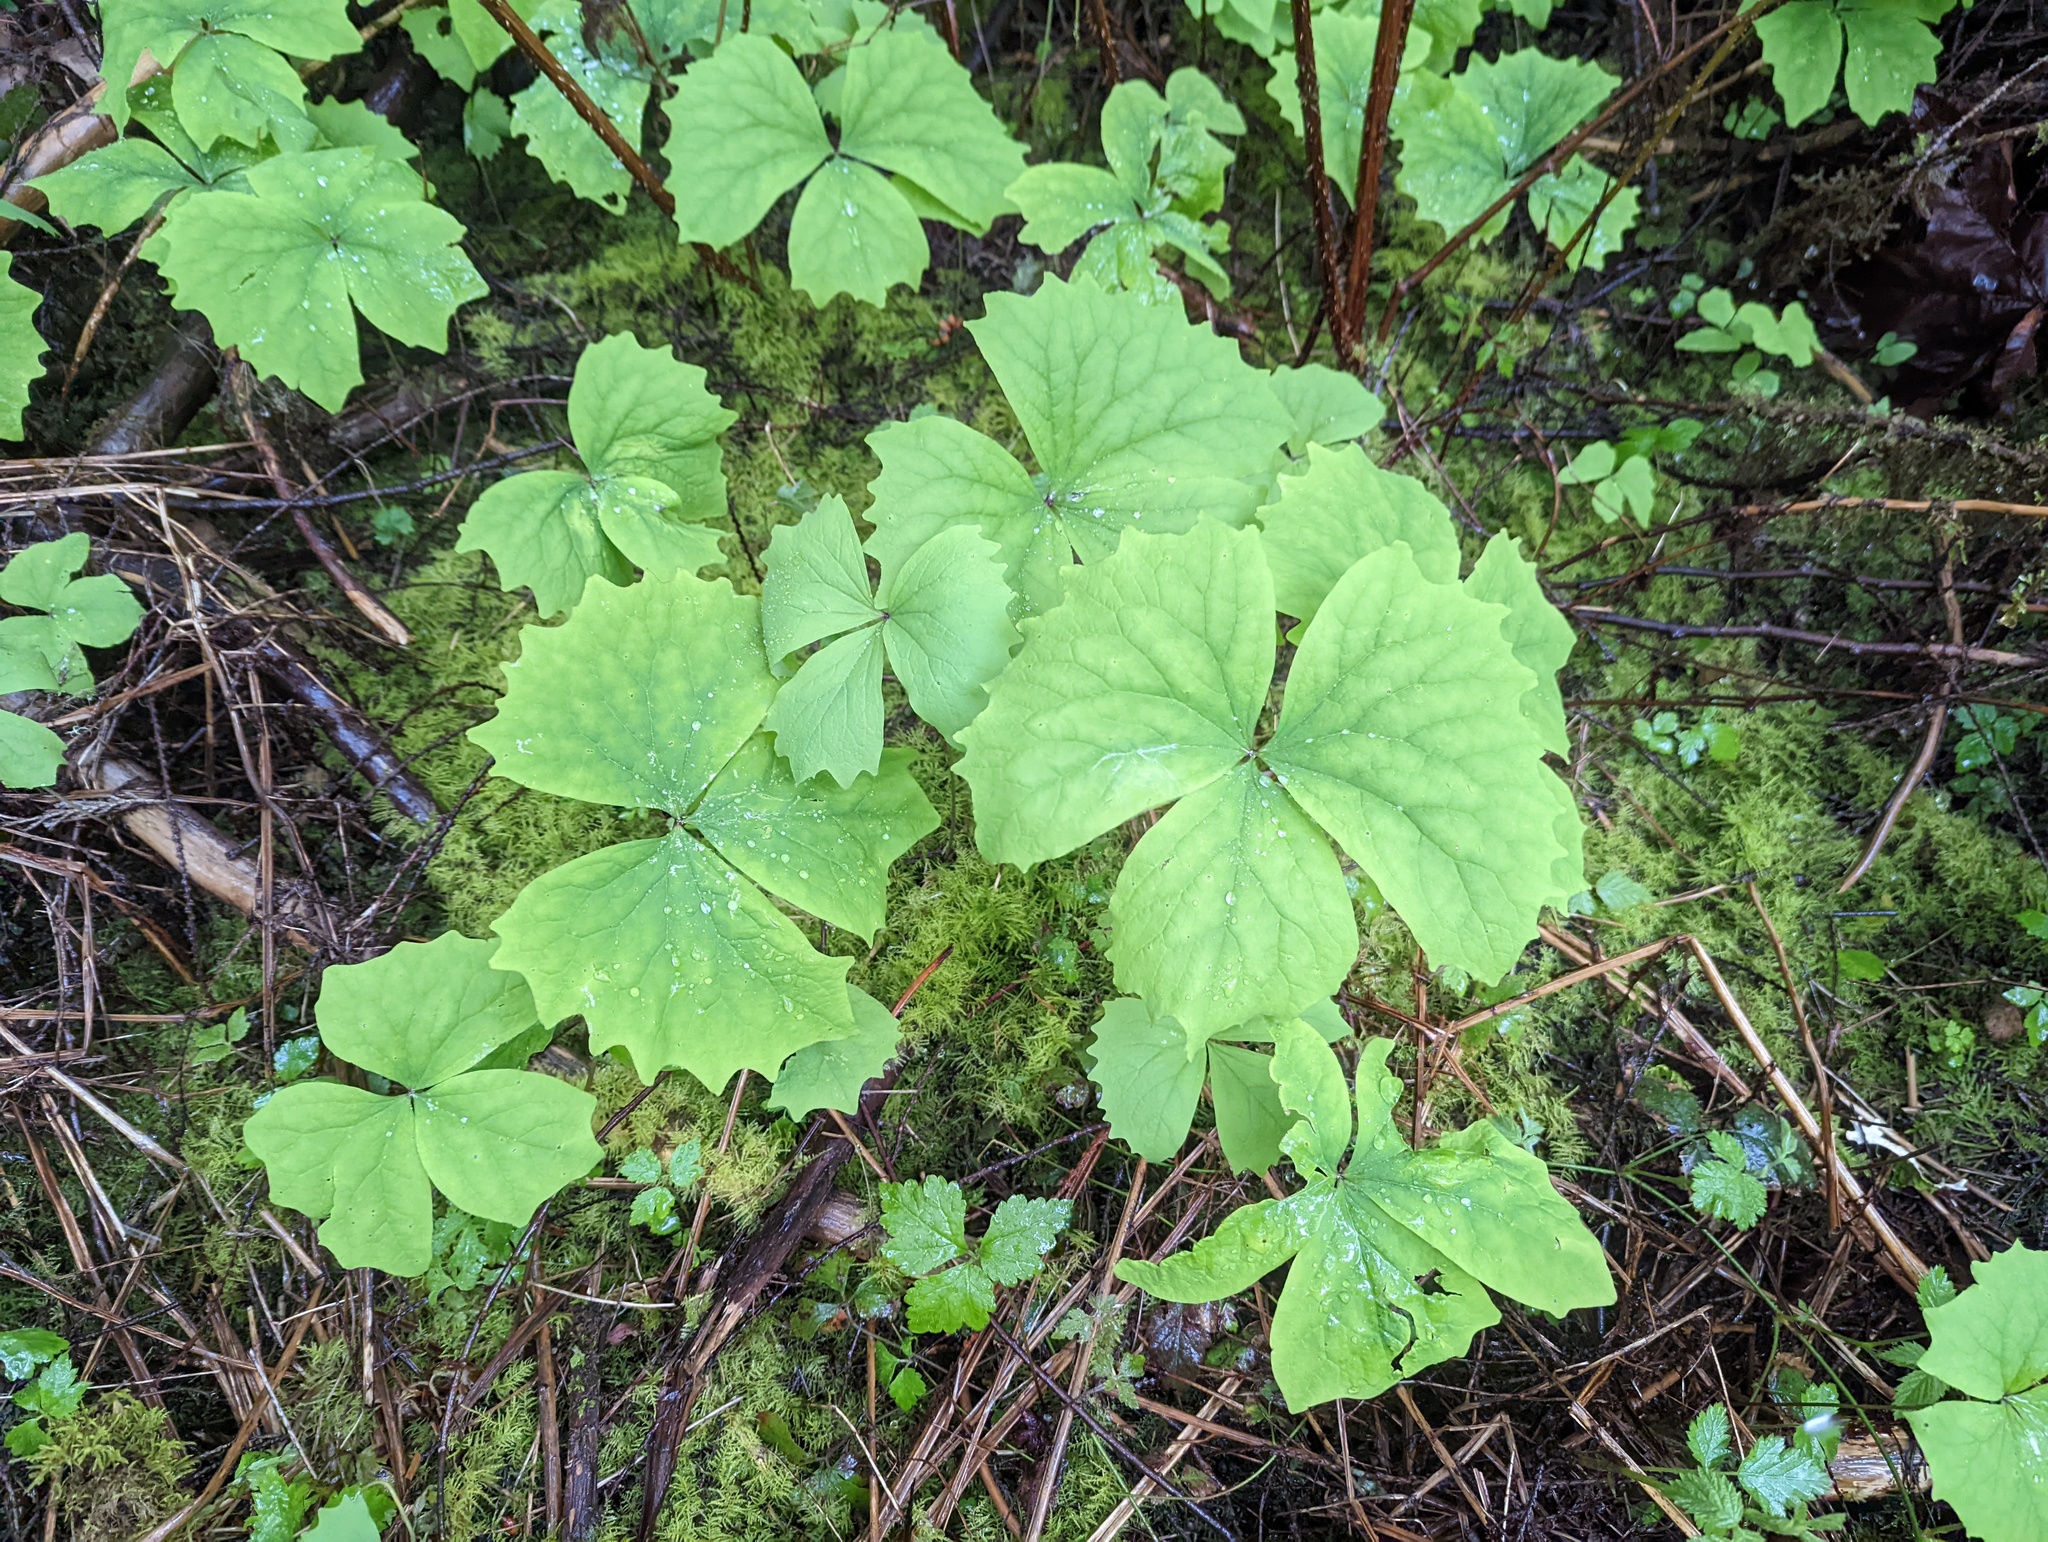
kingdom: Plantae
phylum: Tracheophyta
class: Magnoliopsida
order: Ranunculales
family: Berberidaceae
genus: Achlys
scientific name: Achlys triphylla
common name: Vanilla-leaf
